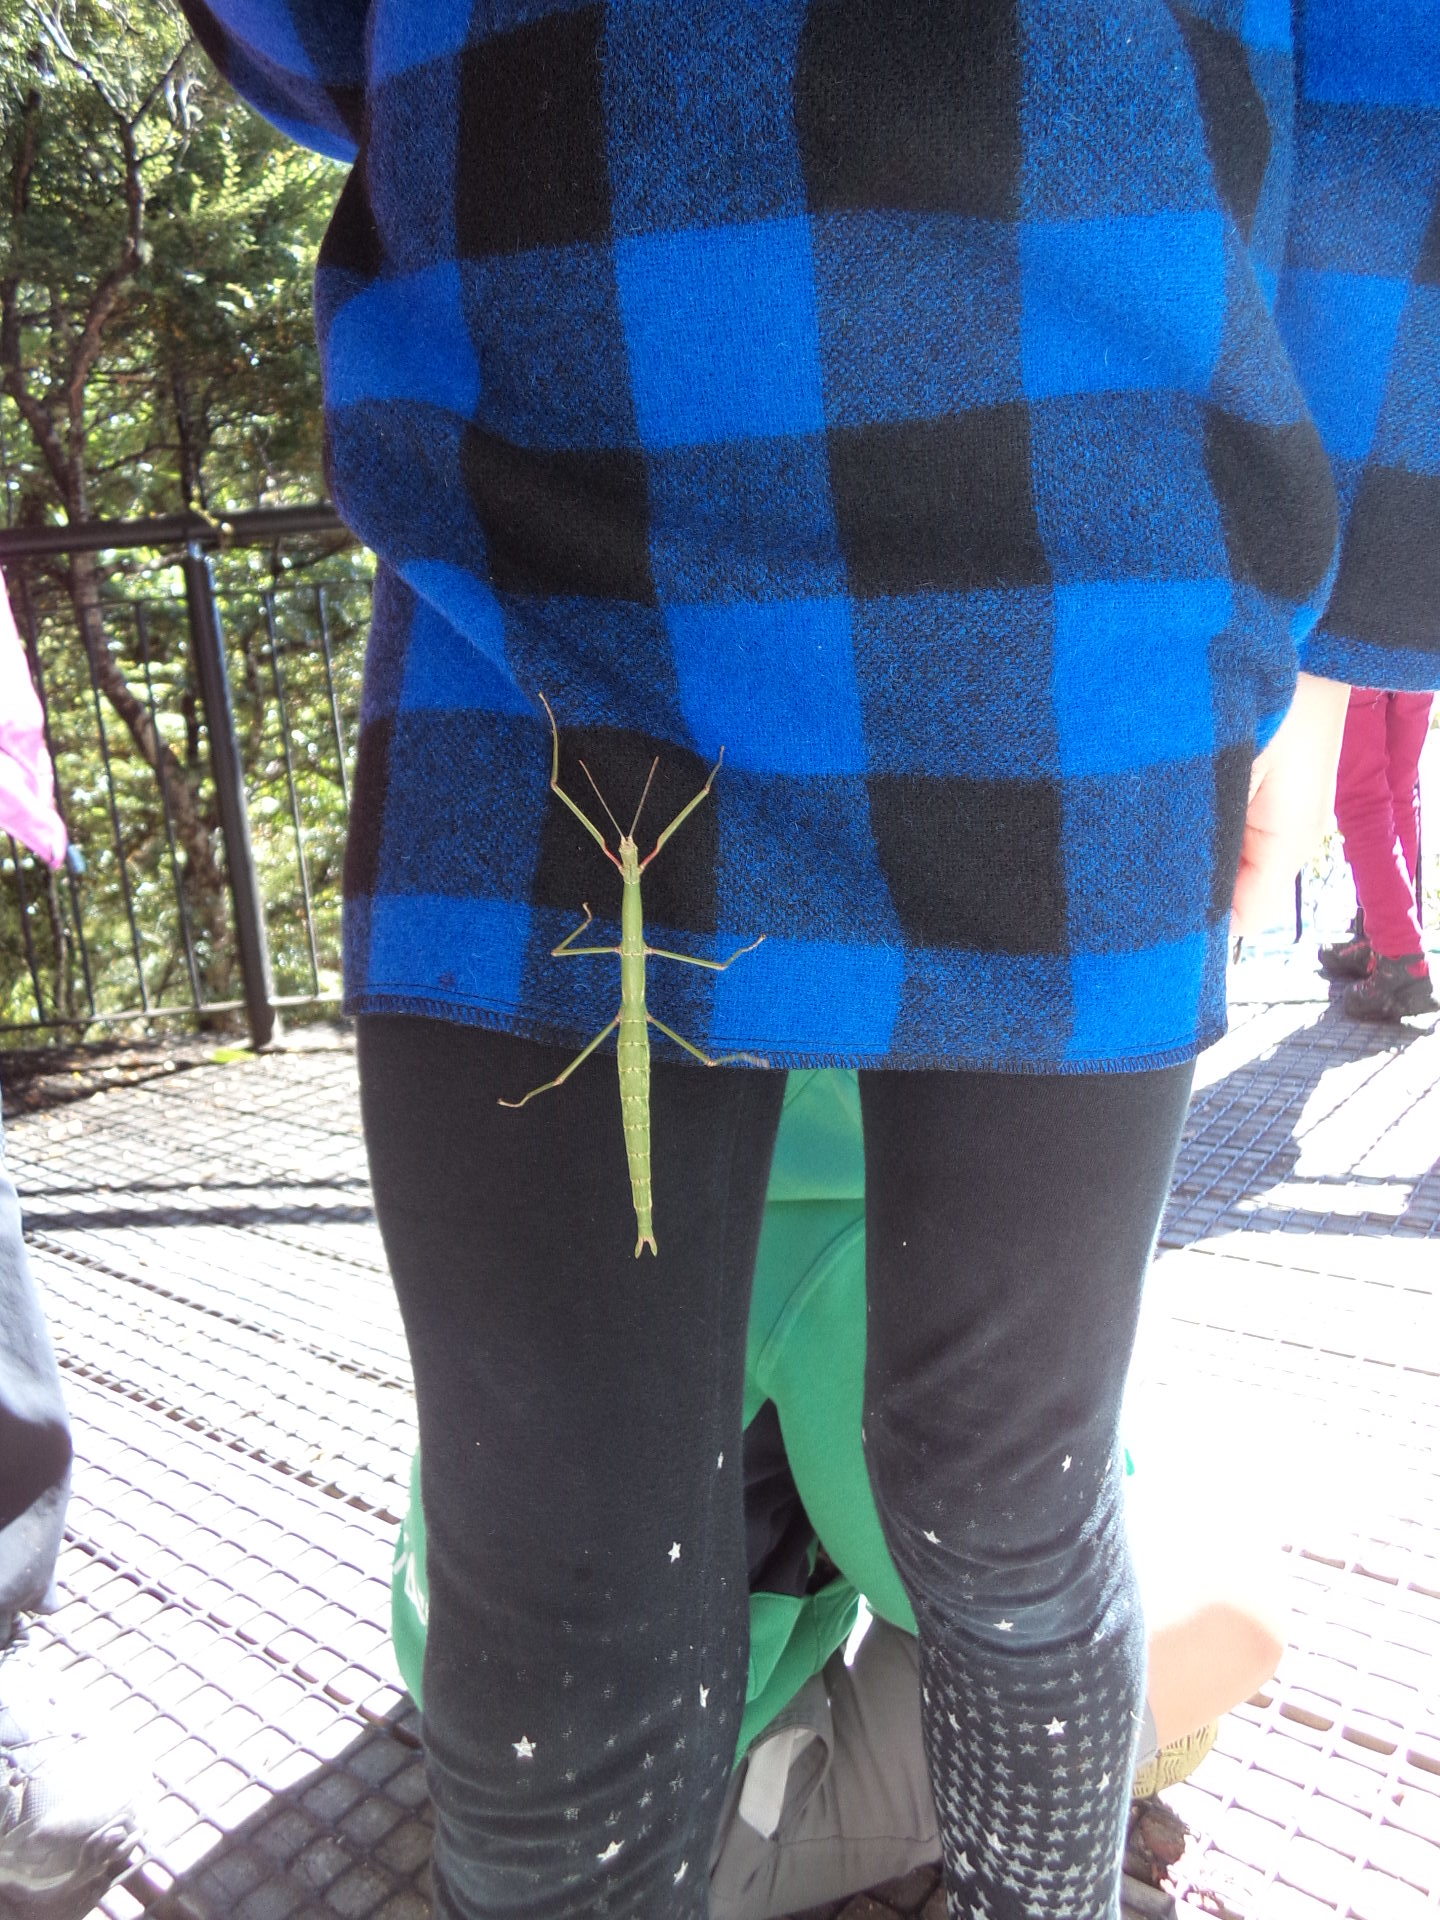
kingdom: Animalia
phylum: Arthropoda
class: Insecta
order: Phasmida
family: Phasmatidae
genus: Acanthoxyla
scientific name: Acanthoxyla inermis
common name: Unarmed stick insect
